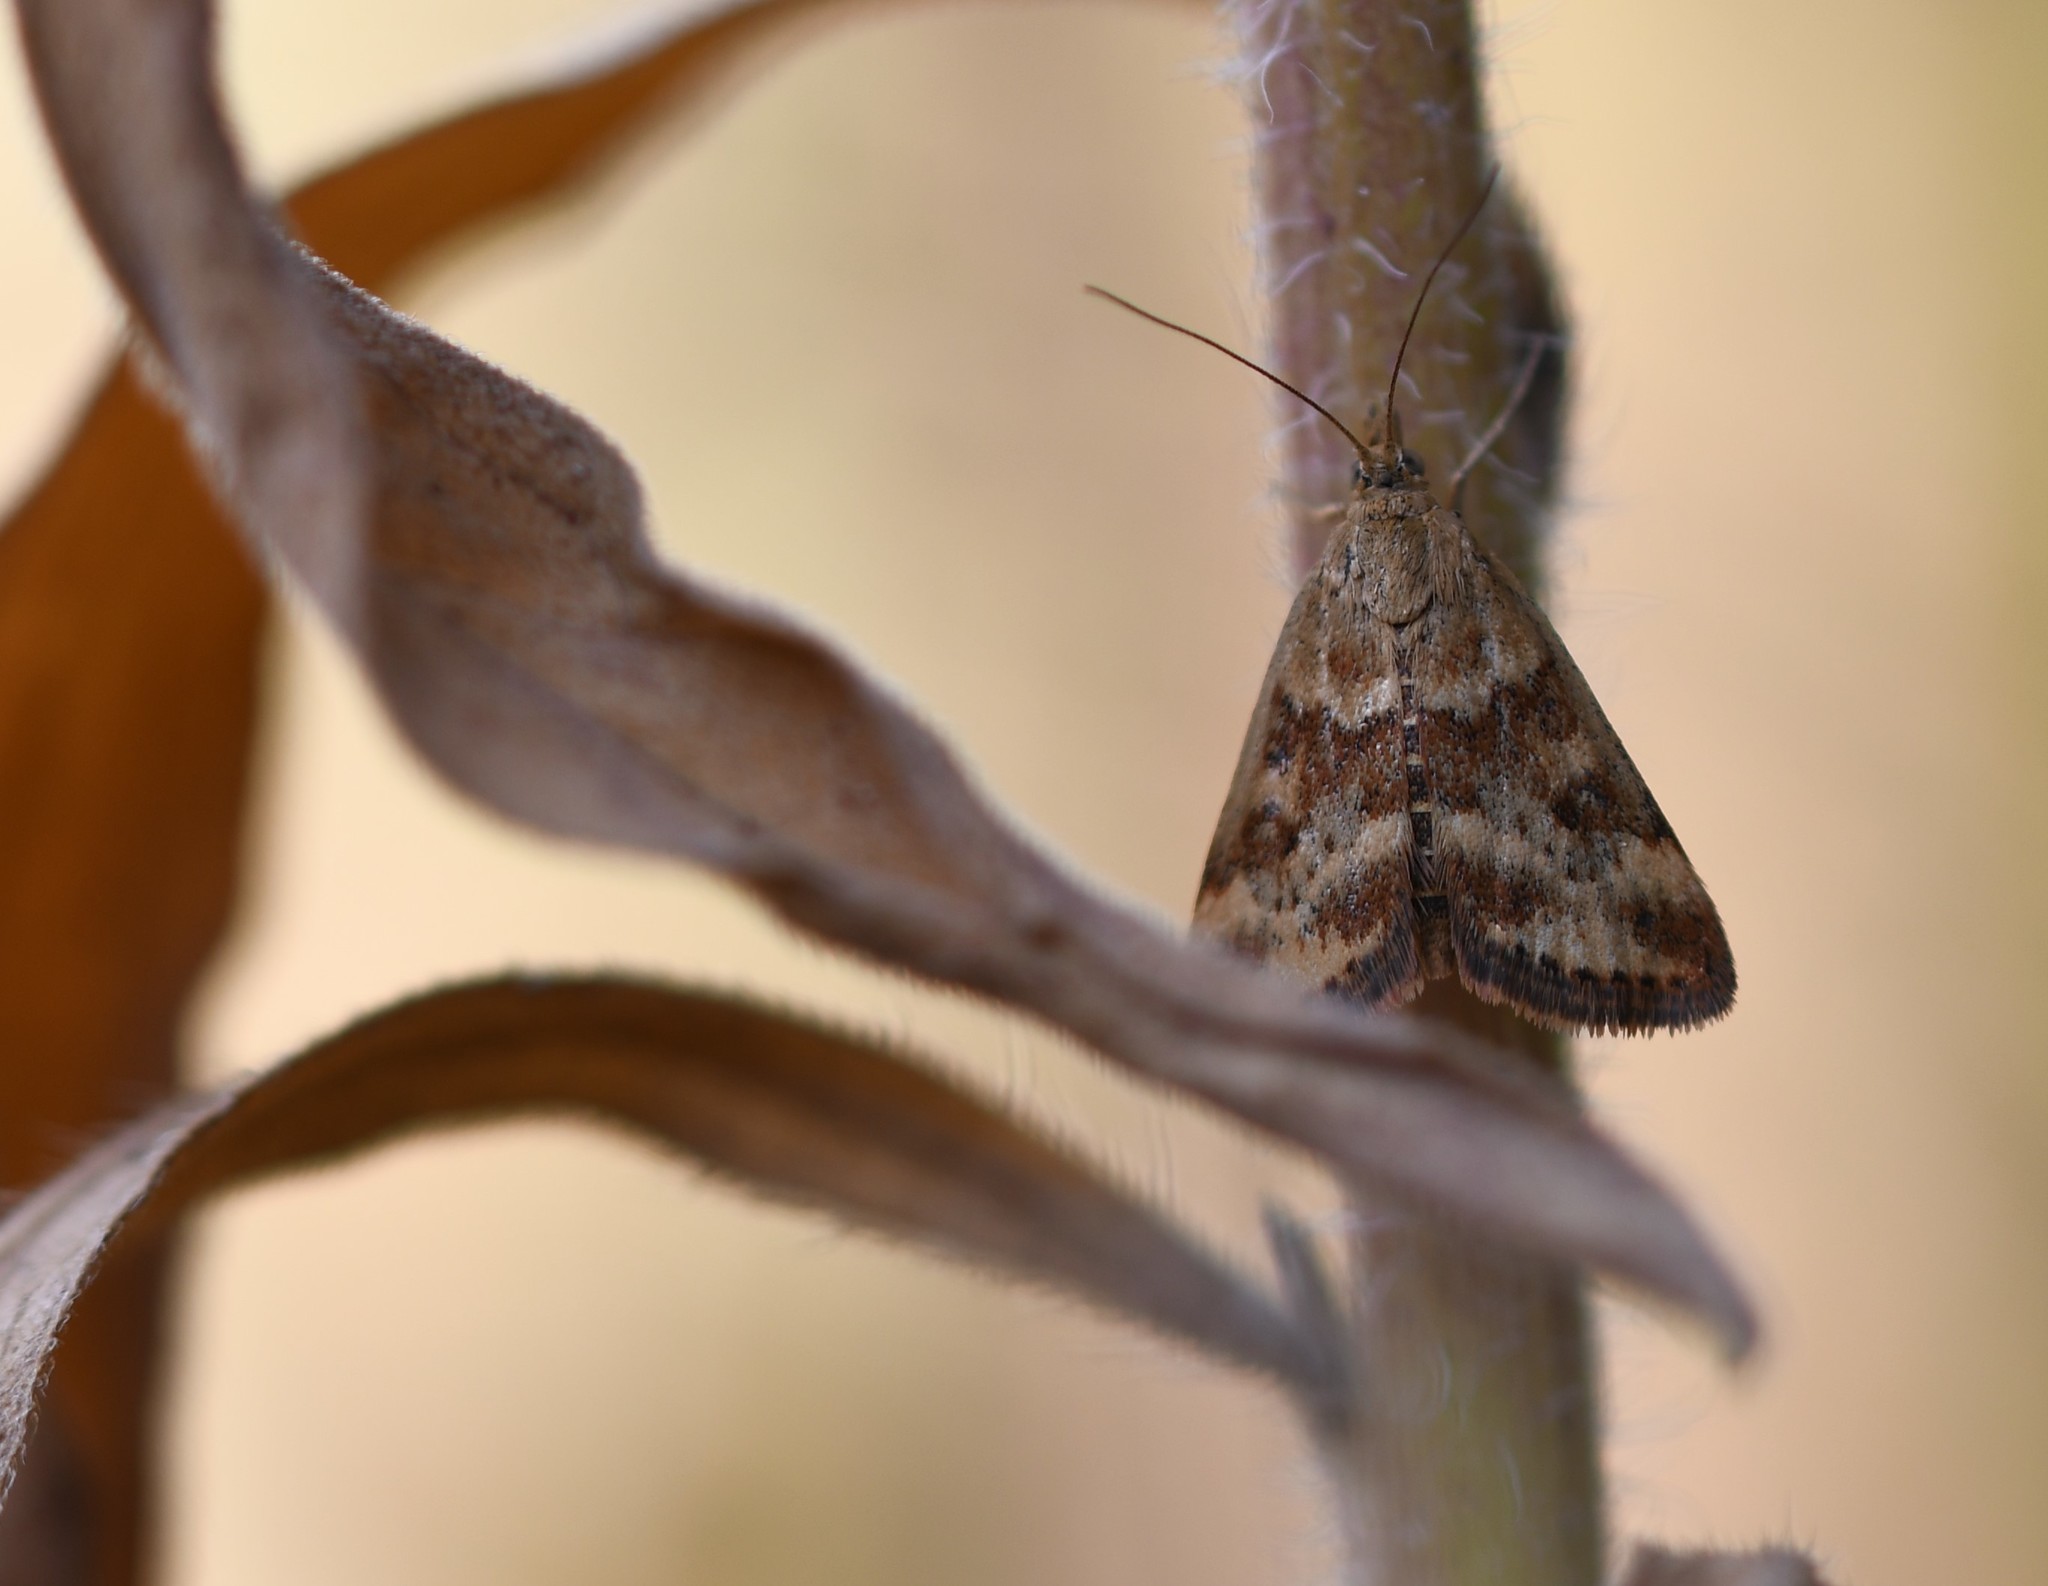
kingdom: Animalia
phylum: Arthropoda
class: Insecta
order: Lepidoptera
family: Crambidae
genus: Pyrausta
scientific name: Pyrausta despicata
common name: Straw-barred pearl
